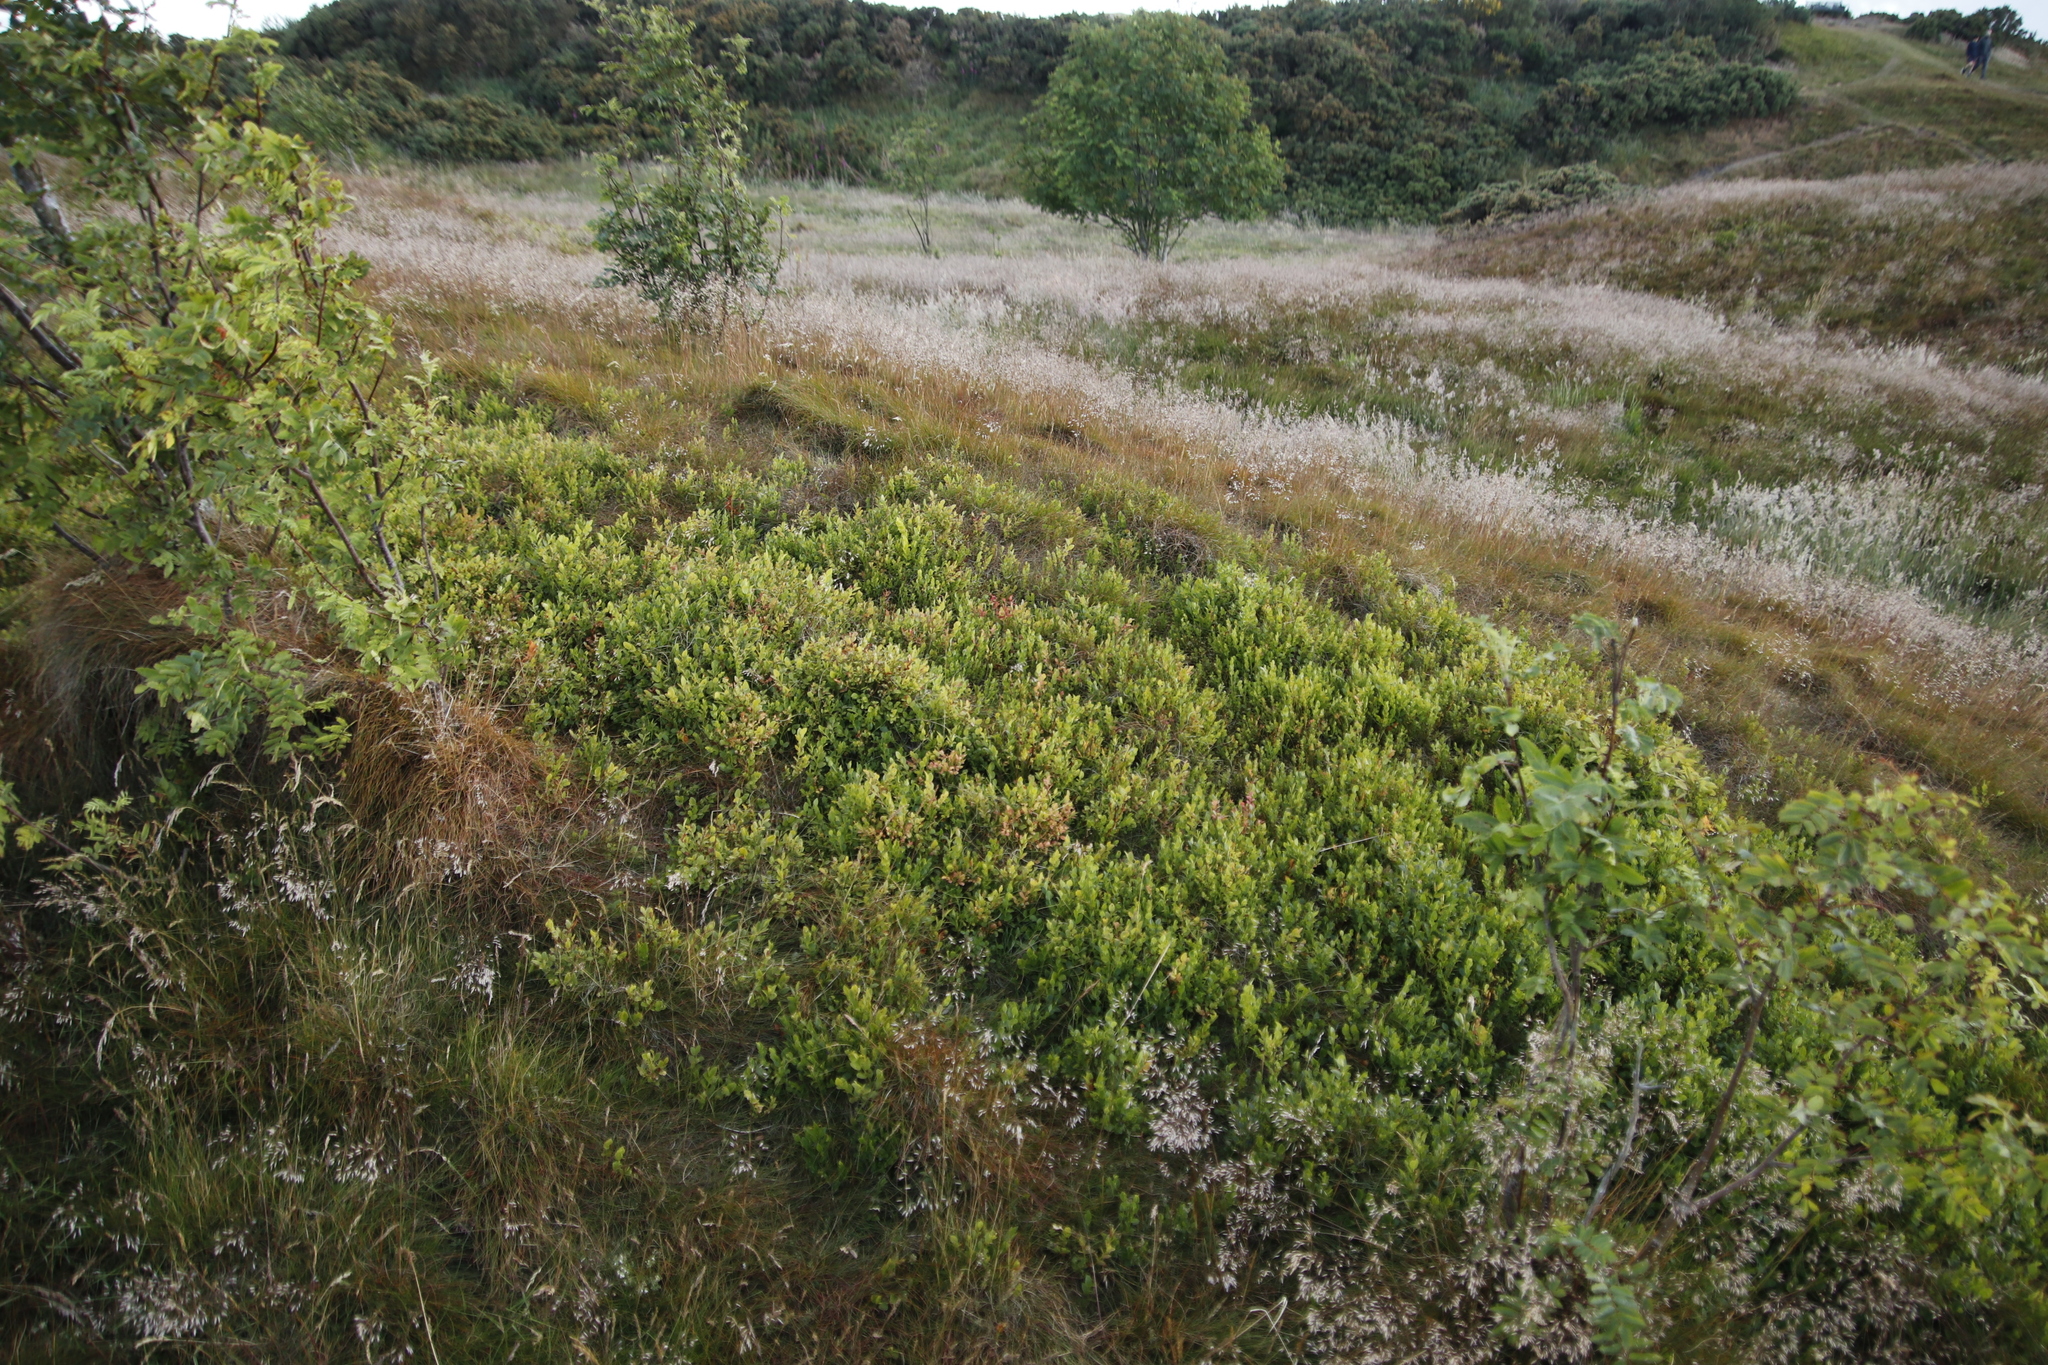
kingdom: Plantae
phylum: Tracheophyta
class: Magnoliopsida
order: Ericales
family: Ericaceae
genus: Vaccinium
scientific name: Vaccinium myrtillus
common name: Bilberry
